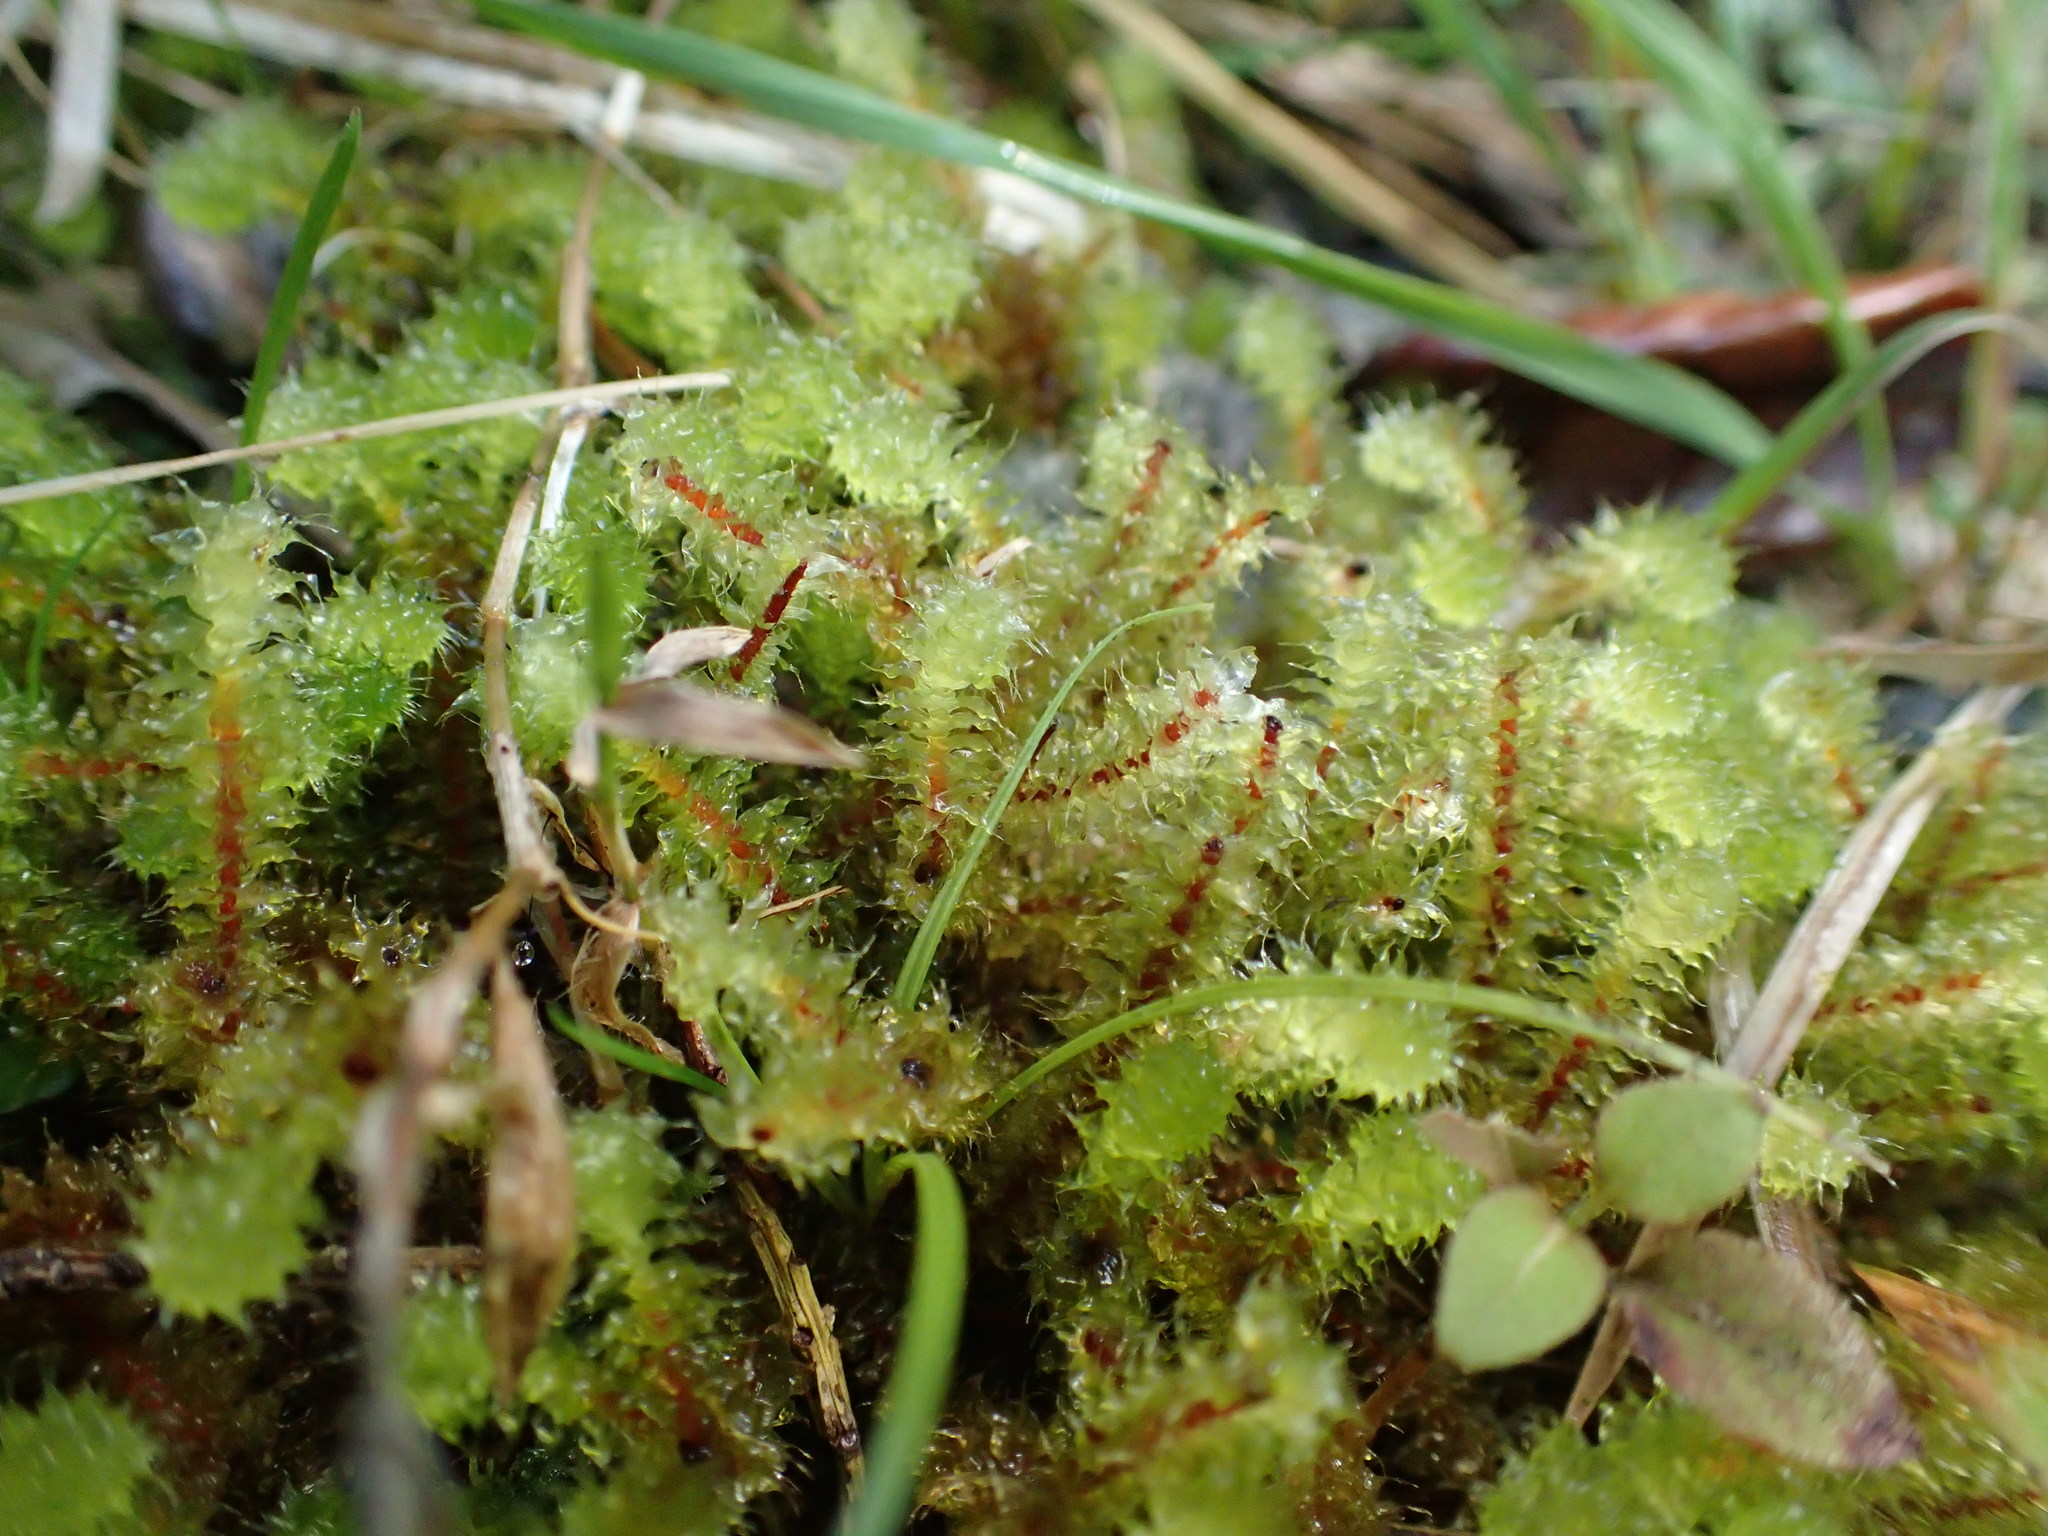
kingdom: Plantae
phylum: Bryophyta
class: Bryopsida
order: Ptychomniales
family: Ptychomniaceae
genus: Ptychomnion
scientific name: Ptychomnion aciculare
